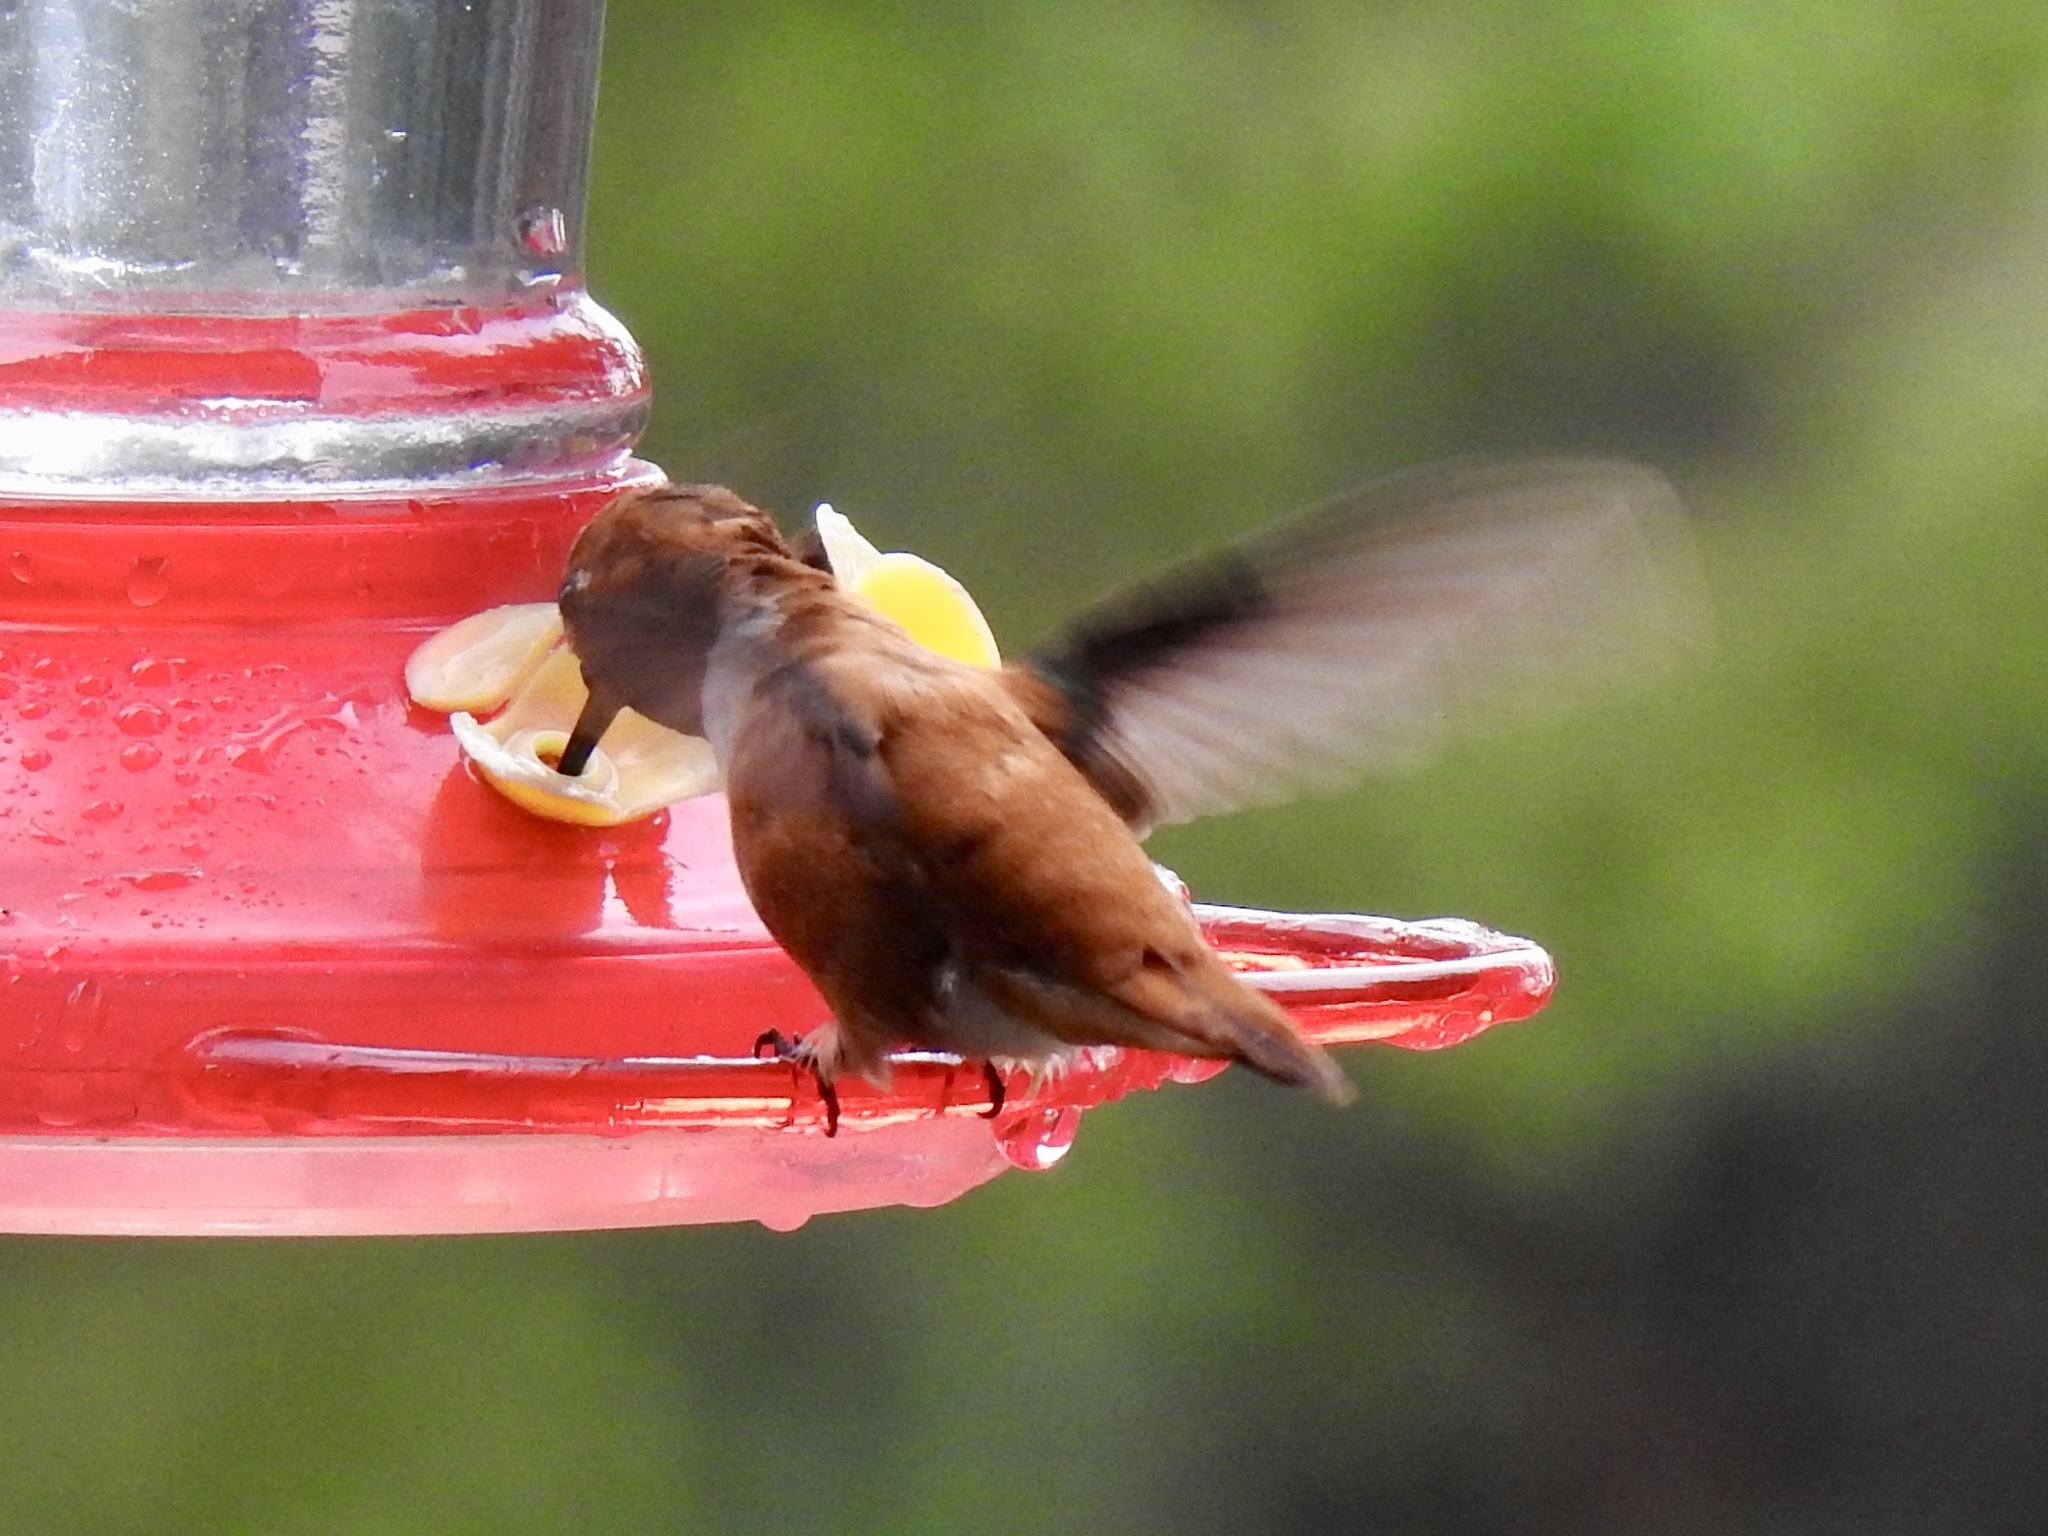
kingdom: Animalia
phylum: Chordata
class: Aves
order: Apodiformes
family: Trochilidae
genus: Selasphorus
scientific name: Selasphorus rufus
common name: Rufous hummingbird
